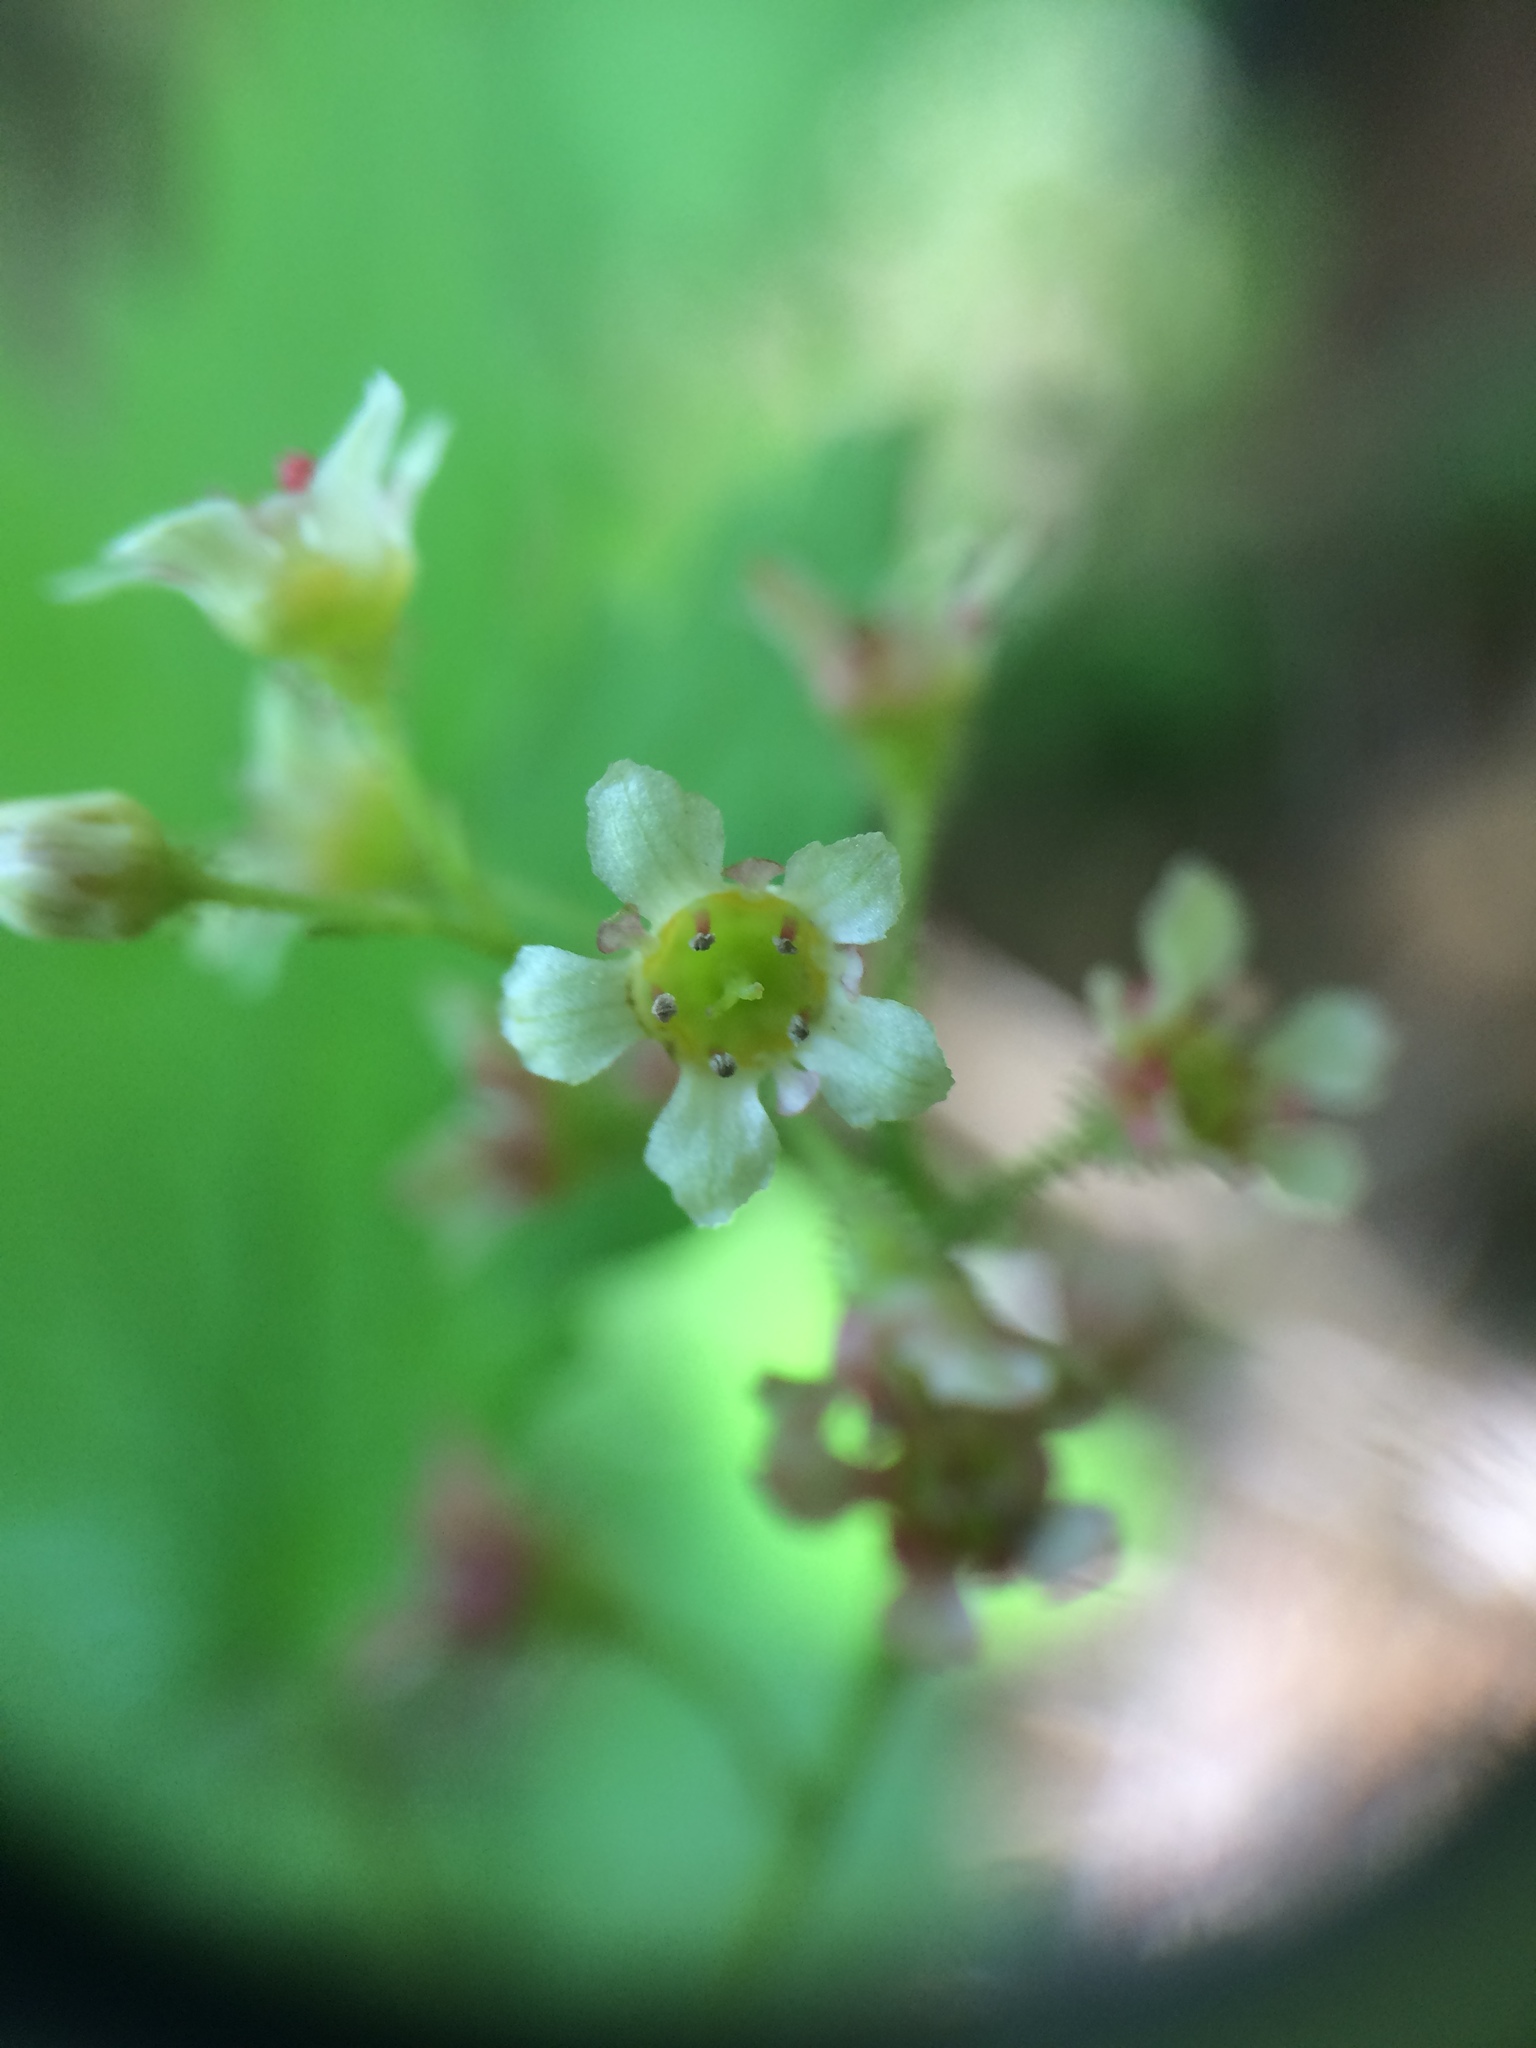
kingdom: Plantae
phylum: Tracheophyta
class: Magnoliopsida
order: Saxifragales
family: Grossulariaceae
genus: Ribes
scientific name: Ribes glandulosum
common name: Skunk currant
